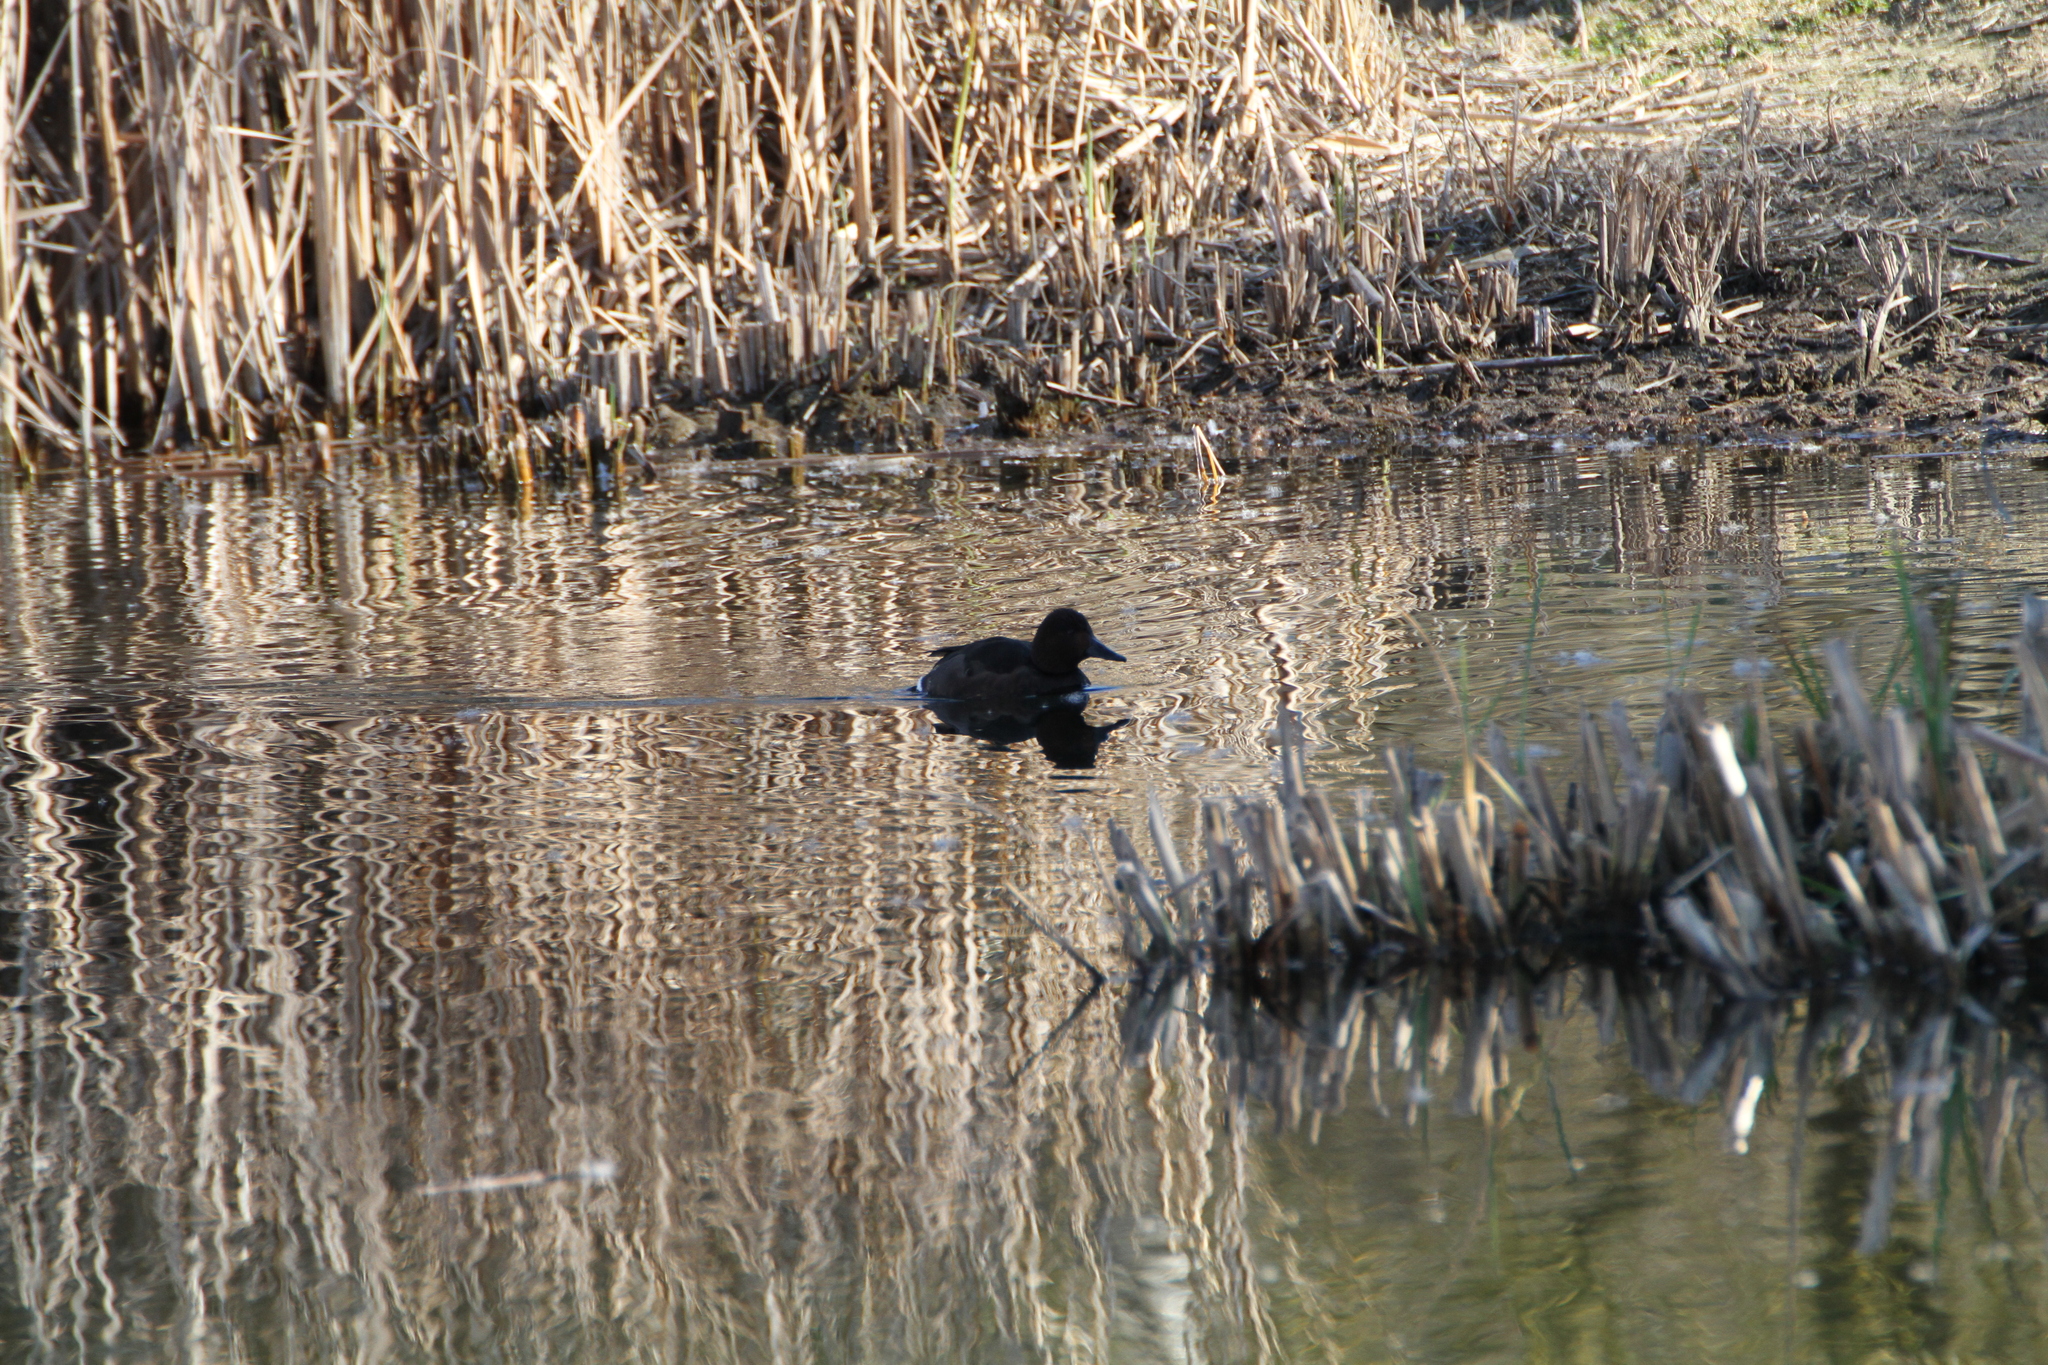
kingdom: Animalia
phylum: Chordata
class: Aves
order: Anseriformes
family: Anatidae
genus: Aythya
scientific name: Aythya nyroca
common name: Ferruginous duck
